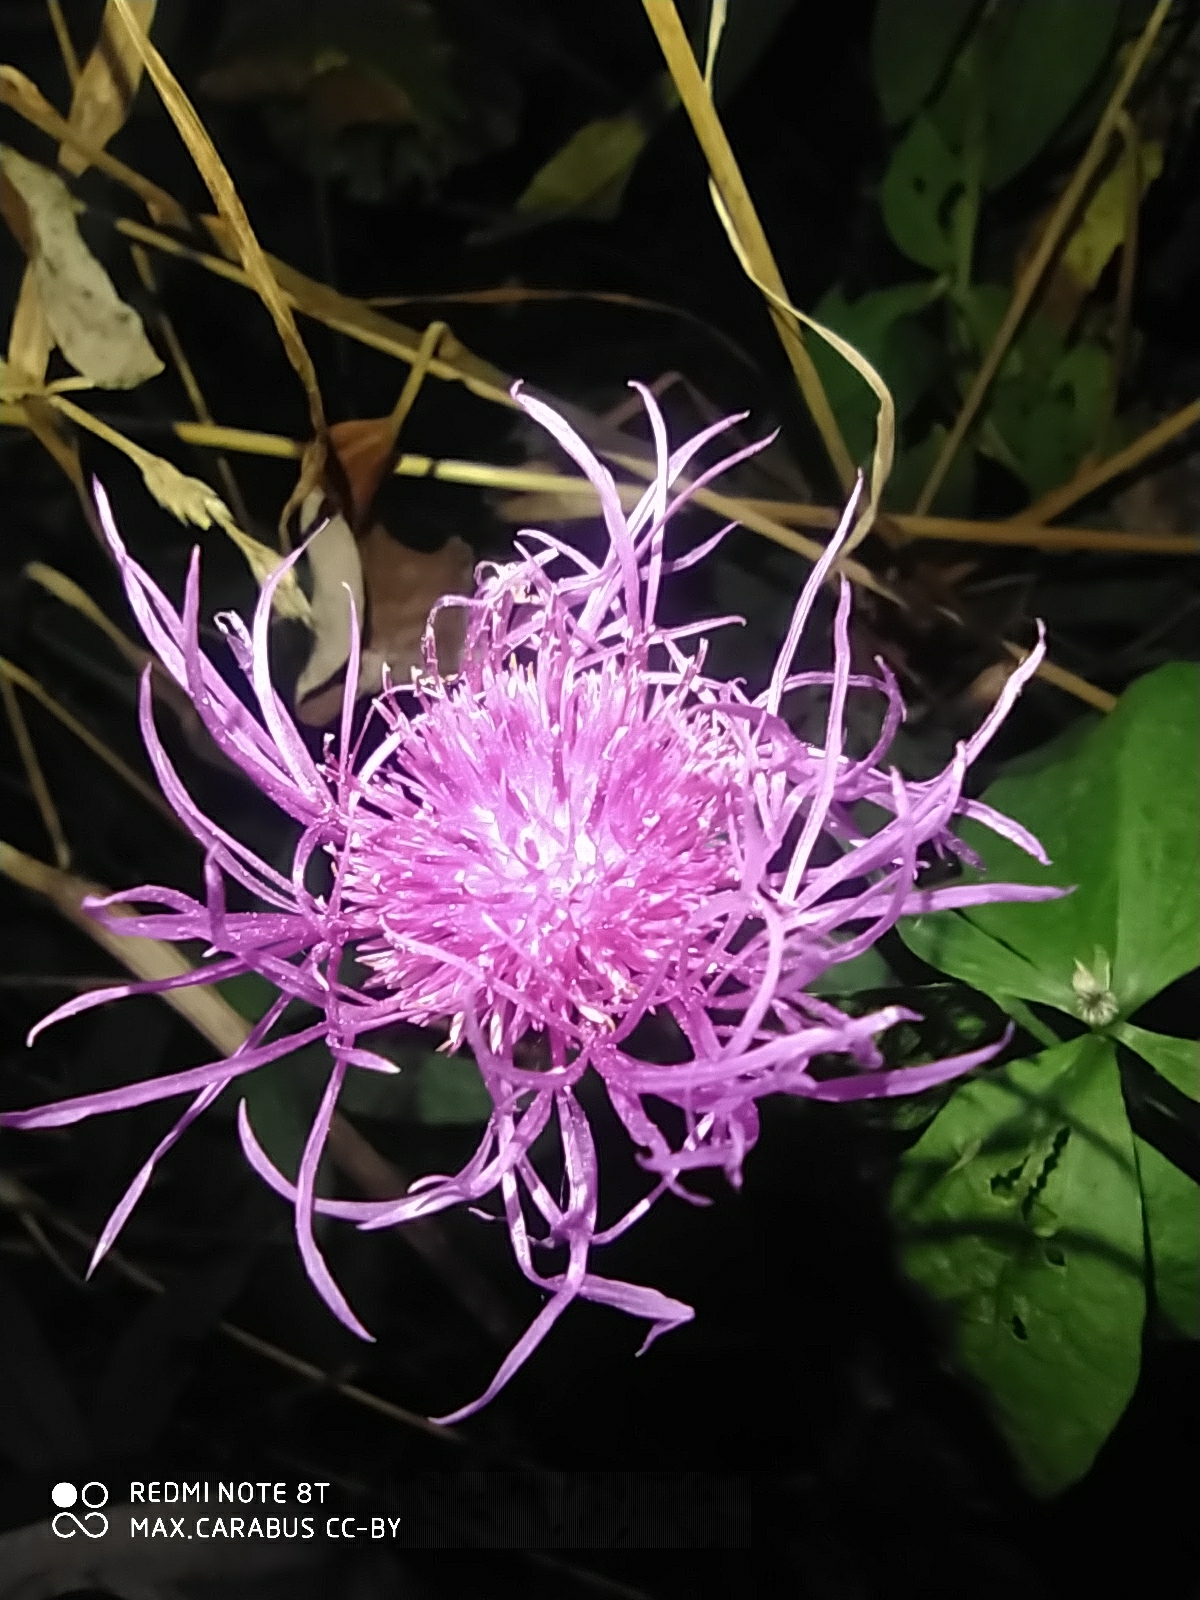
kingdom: Plantae
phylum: Tracheophyta
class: Magnoliopsida
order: Asterales
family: Asteraceae
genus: Centaurea
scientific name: Centaurea phrygia
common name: Wig knapweed
